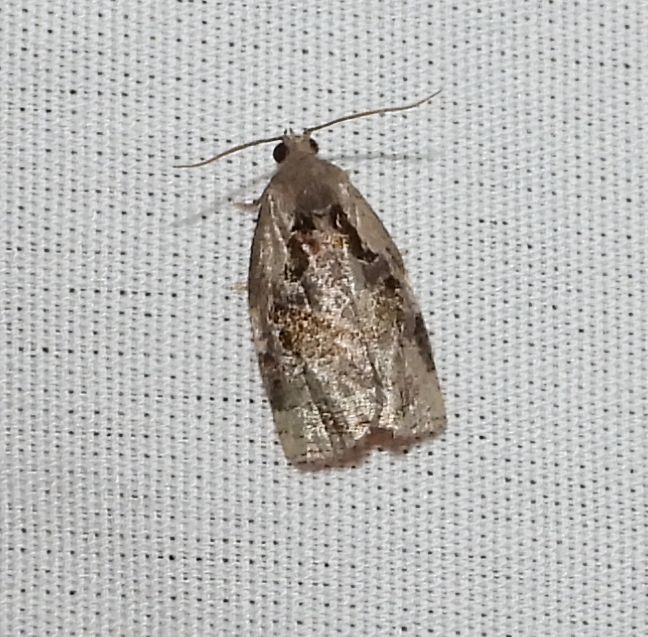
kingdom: Animalia
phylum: Arthropoda
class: Insecta
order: Lepidoptera
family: Tortricidae
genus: Archips
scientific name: Archips grisea
